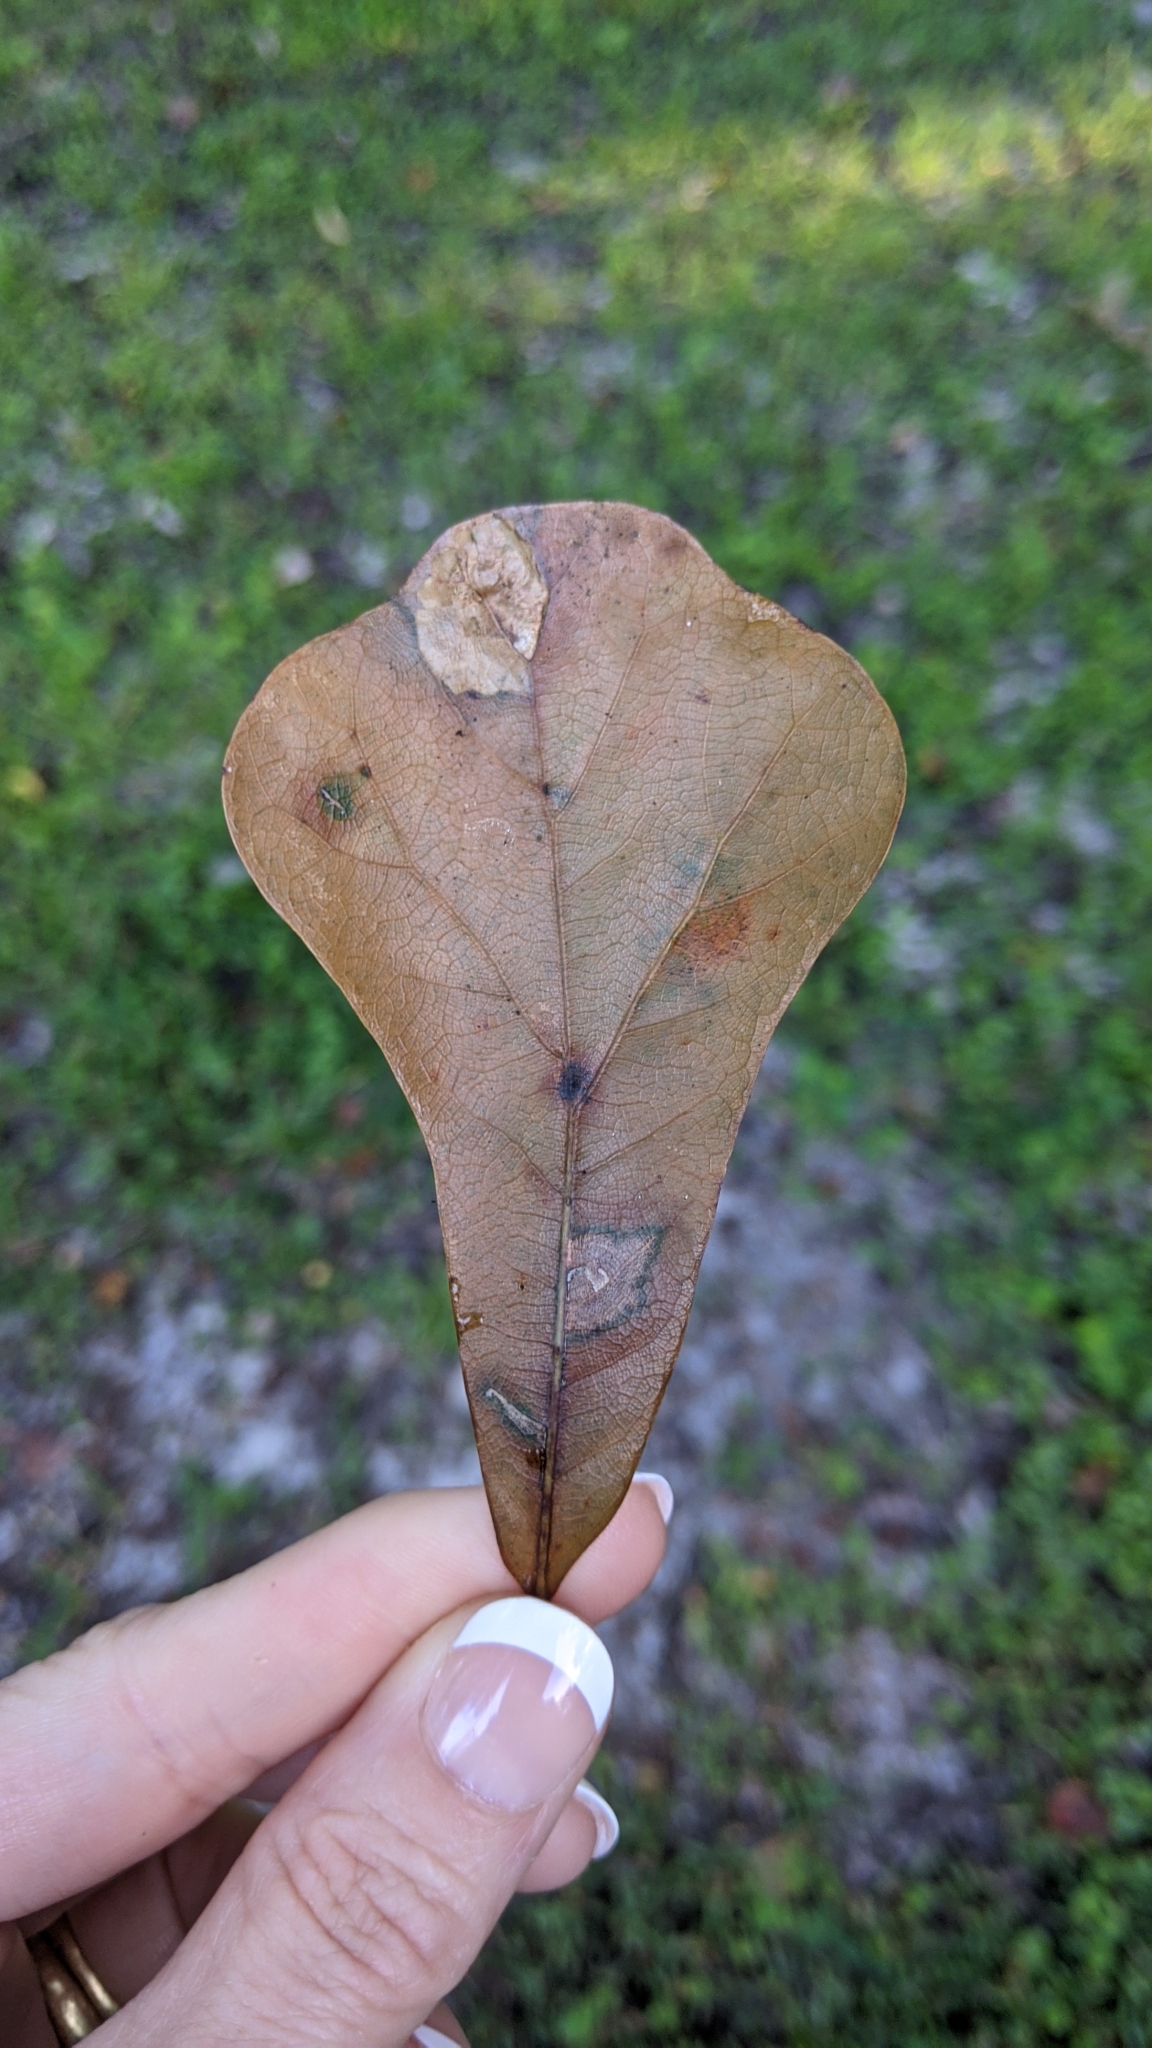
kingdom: Plantae
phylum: Tracheophyta
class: Magnoliopsida
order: Fagales
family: Fagaceae
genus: Quercus
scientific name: Quercus nigra
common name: Water oak
